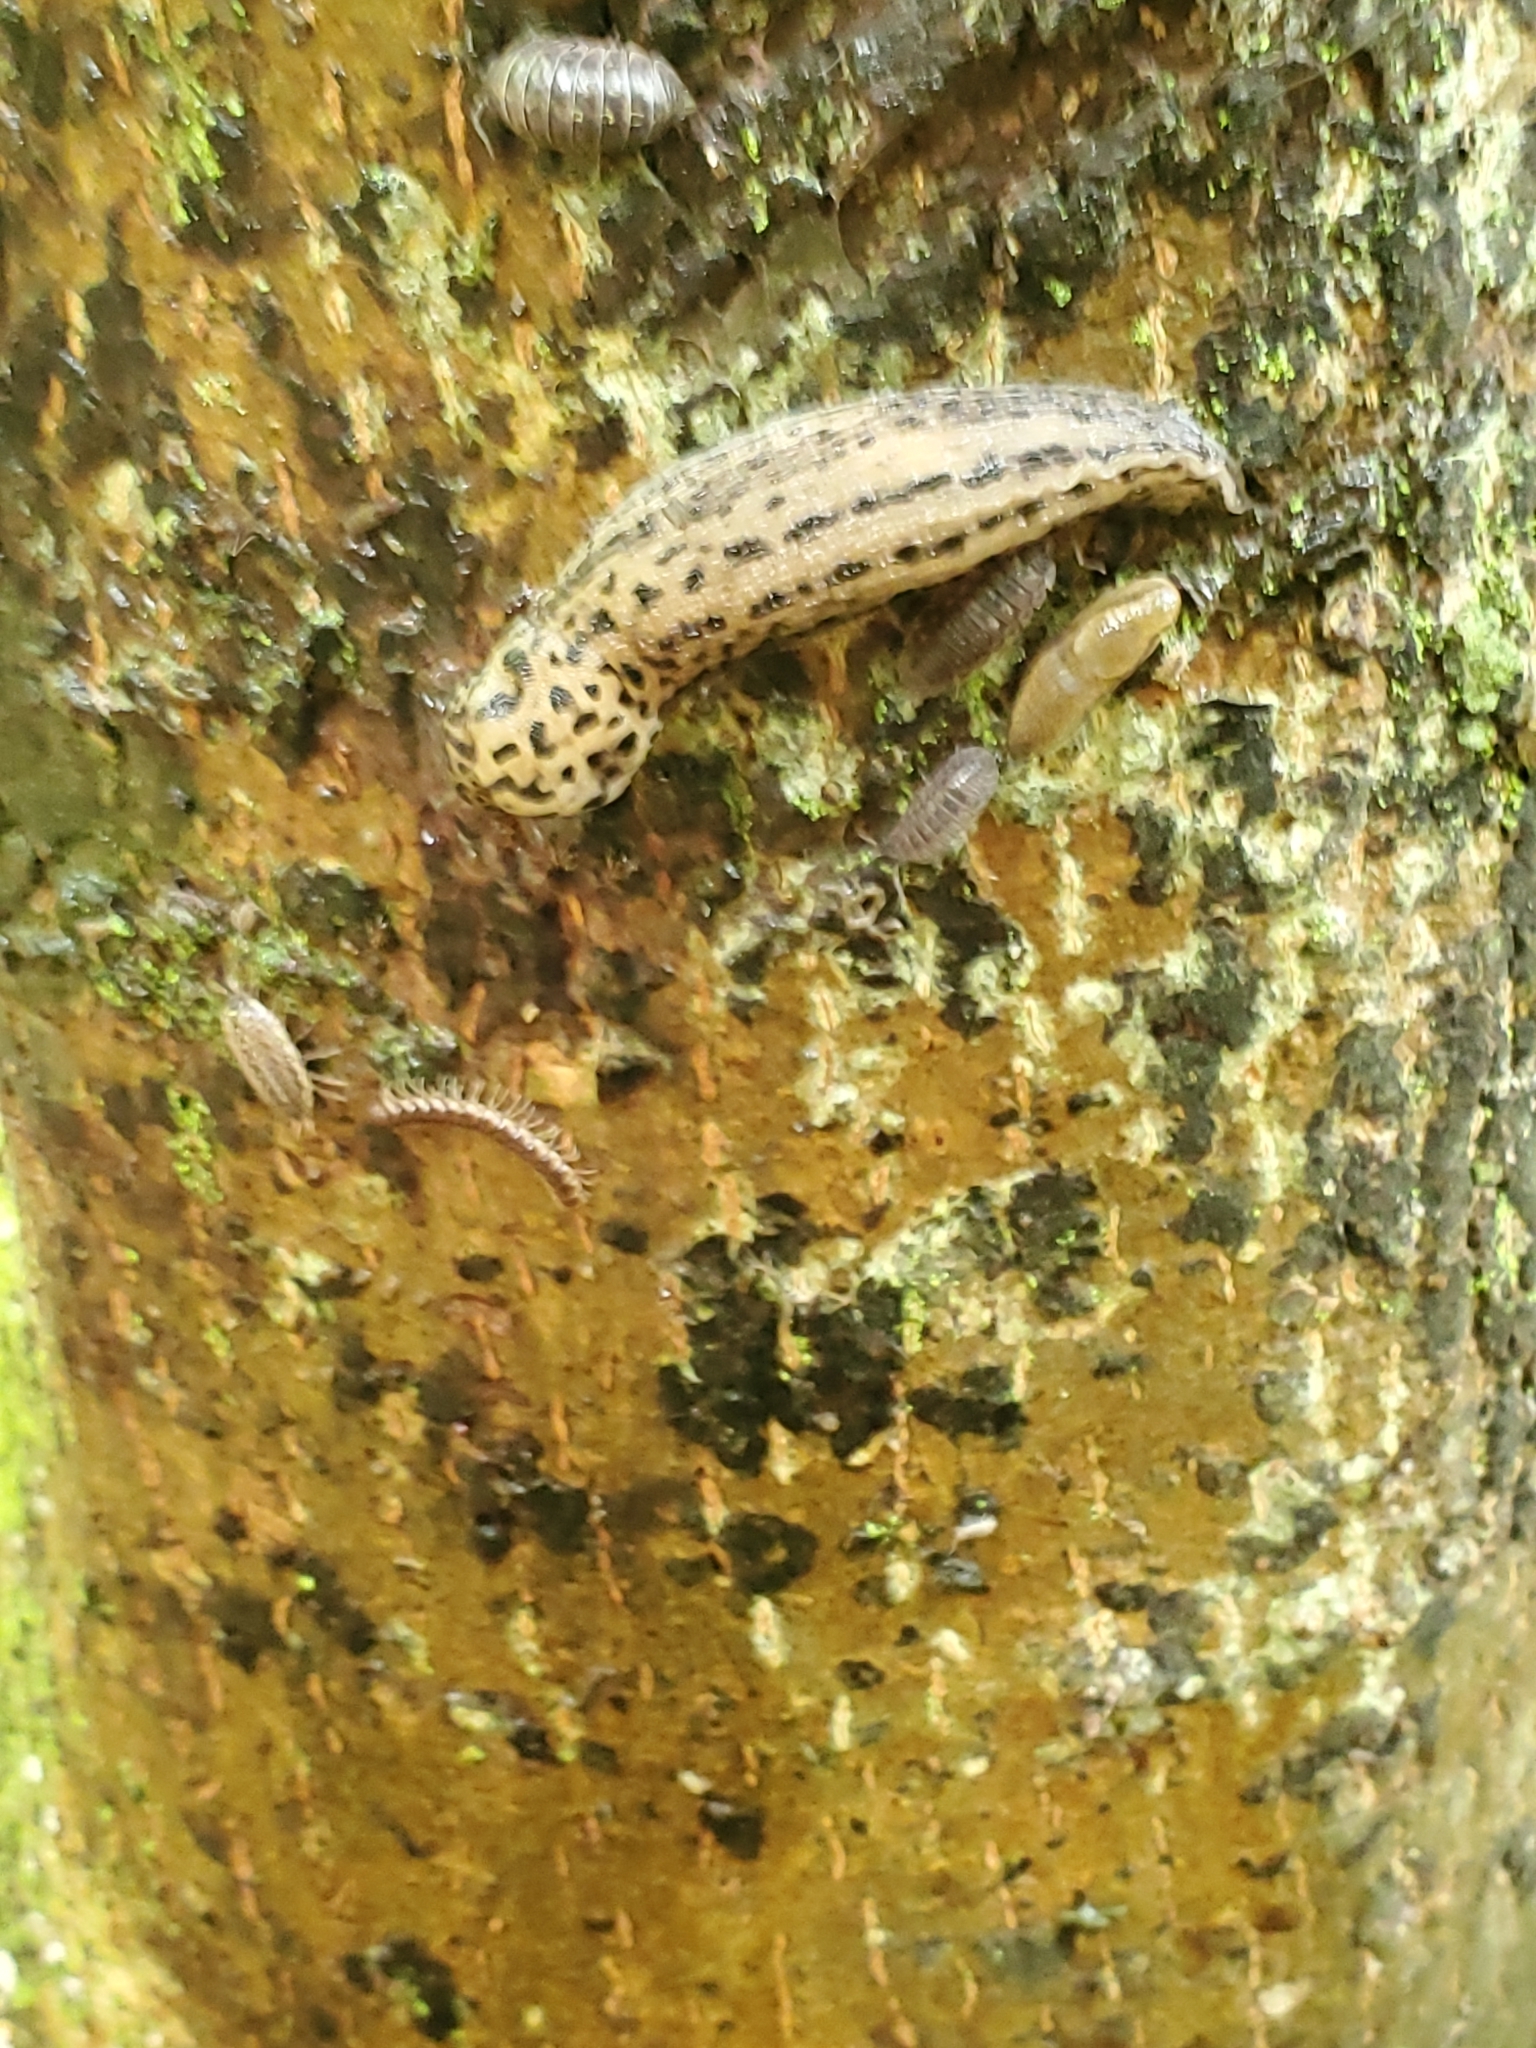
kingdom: Animalia
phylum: Mollusca
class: Gastropoda
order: Stylommatophora
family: Limacidae
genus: Limax
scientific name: Limax maximus
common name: Great grey slug
